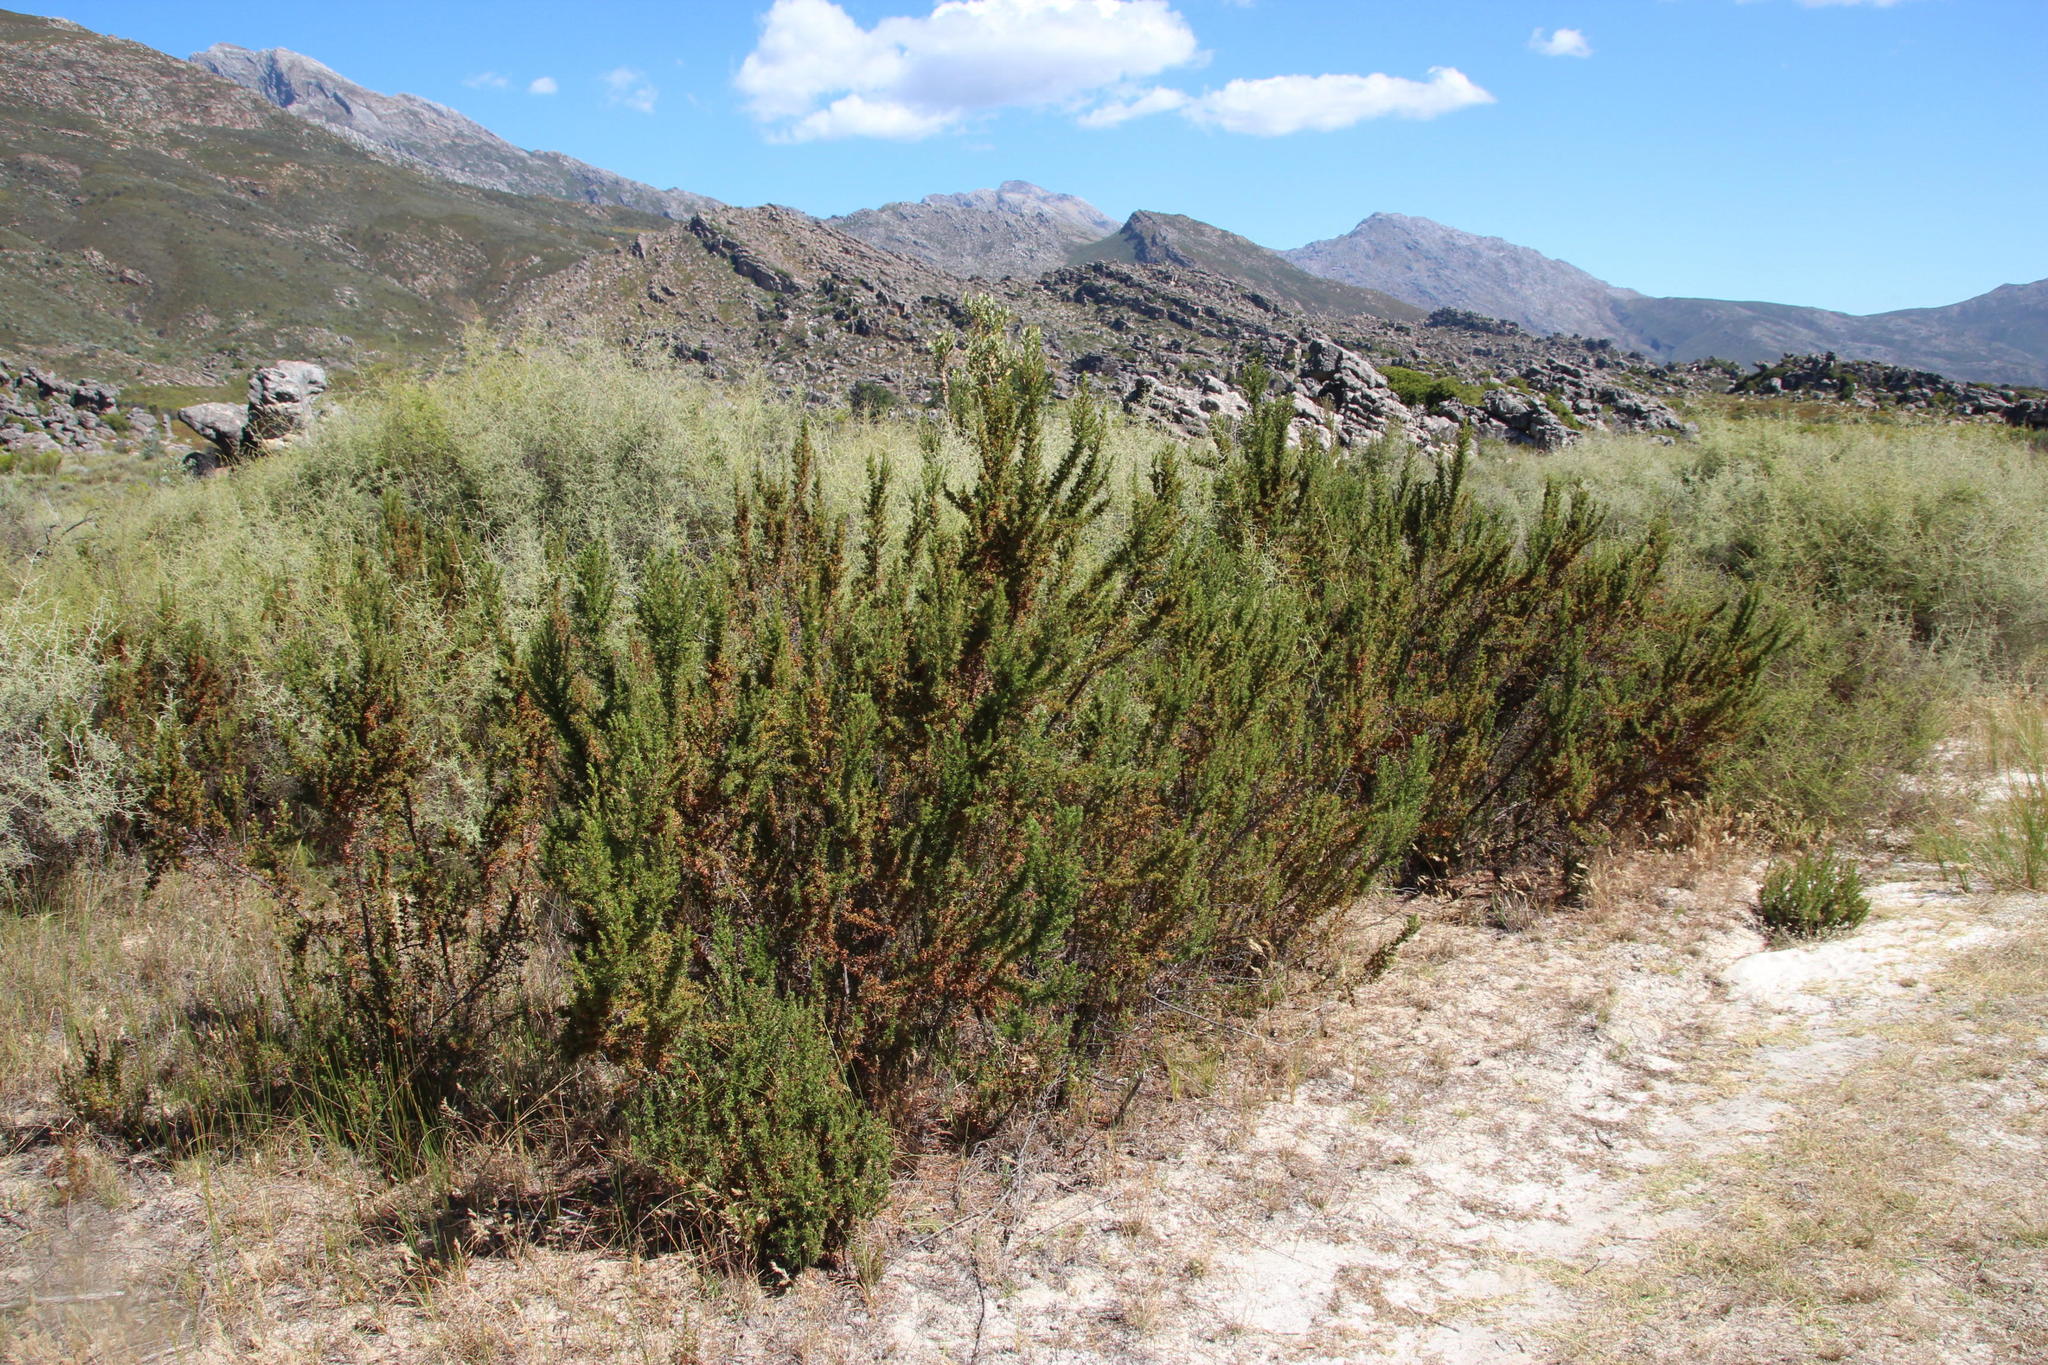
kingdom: Plantae
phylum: Tracheophyta
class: Magnoliopsida
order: Rosales
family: Rosaceae
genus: Cliffortia
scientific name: Cliffortia ruscifolia
